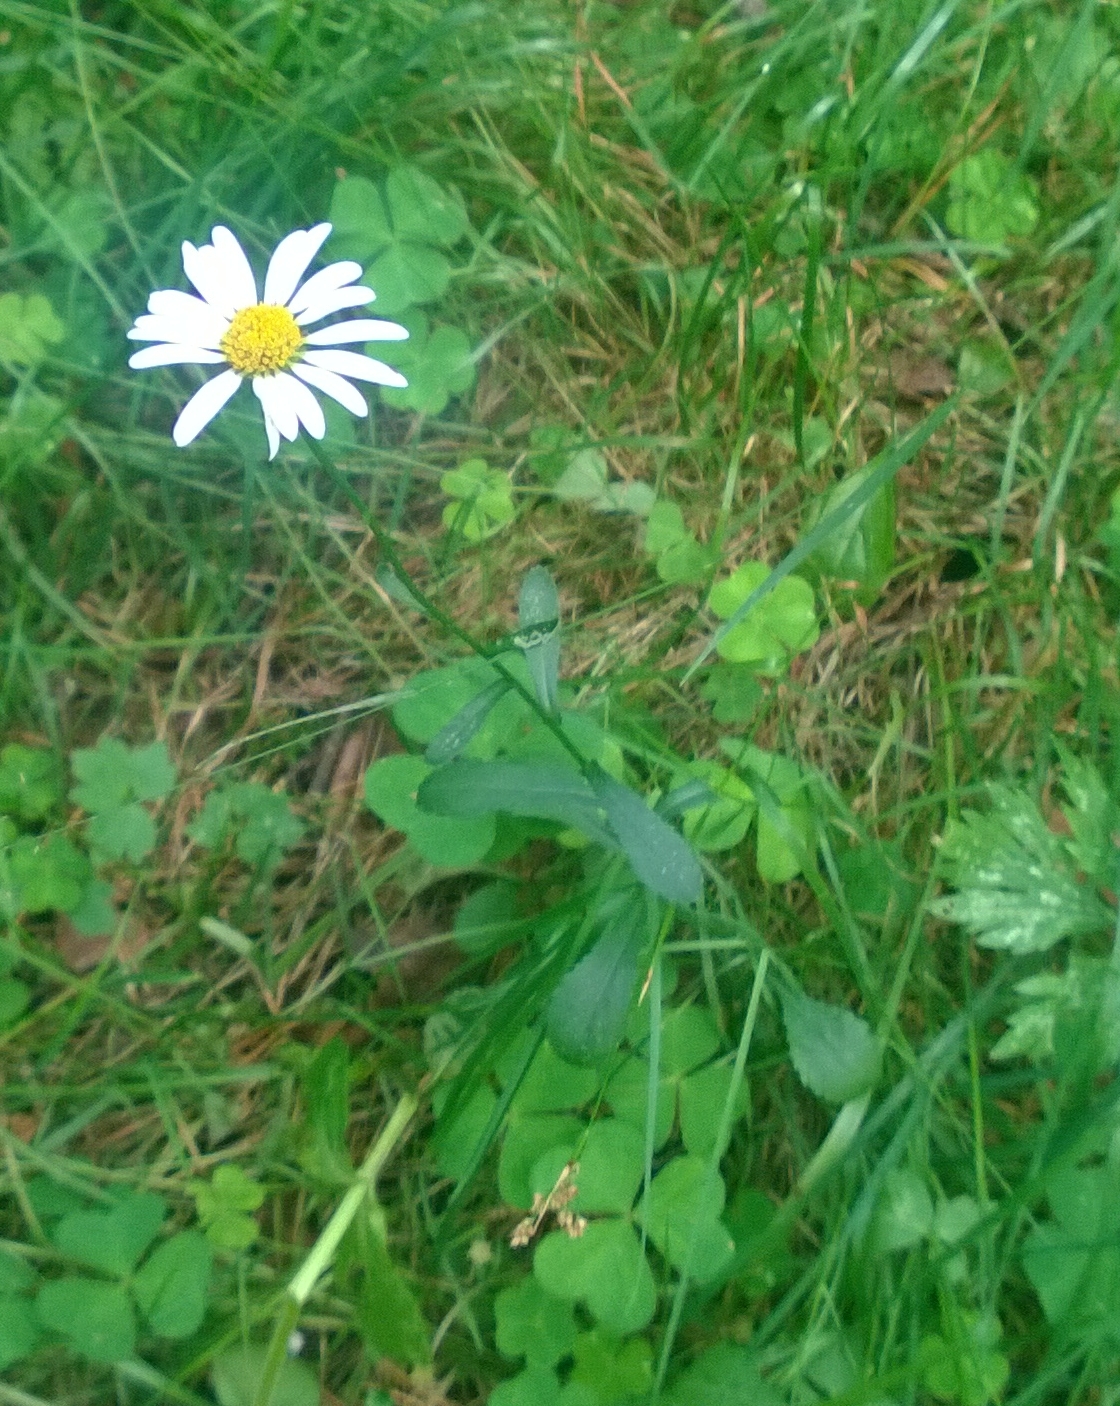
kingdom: Plantae
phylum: Tracheophyta
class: Magnoliopsida
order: Asterales
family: Asteraceae
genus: Leucanthemum
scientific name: Leucanthemum vulgare
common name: Oxeye daisy
